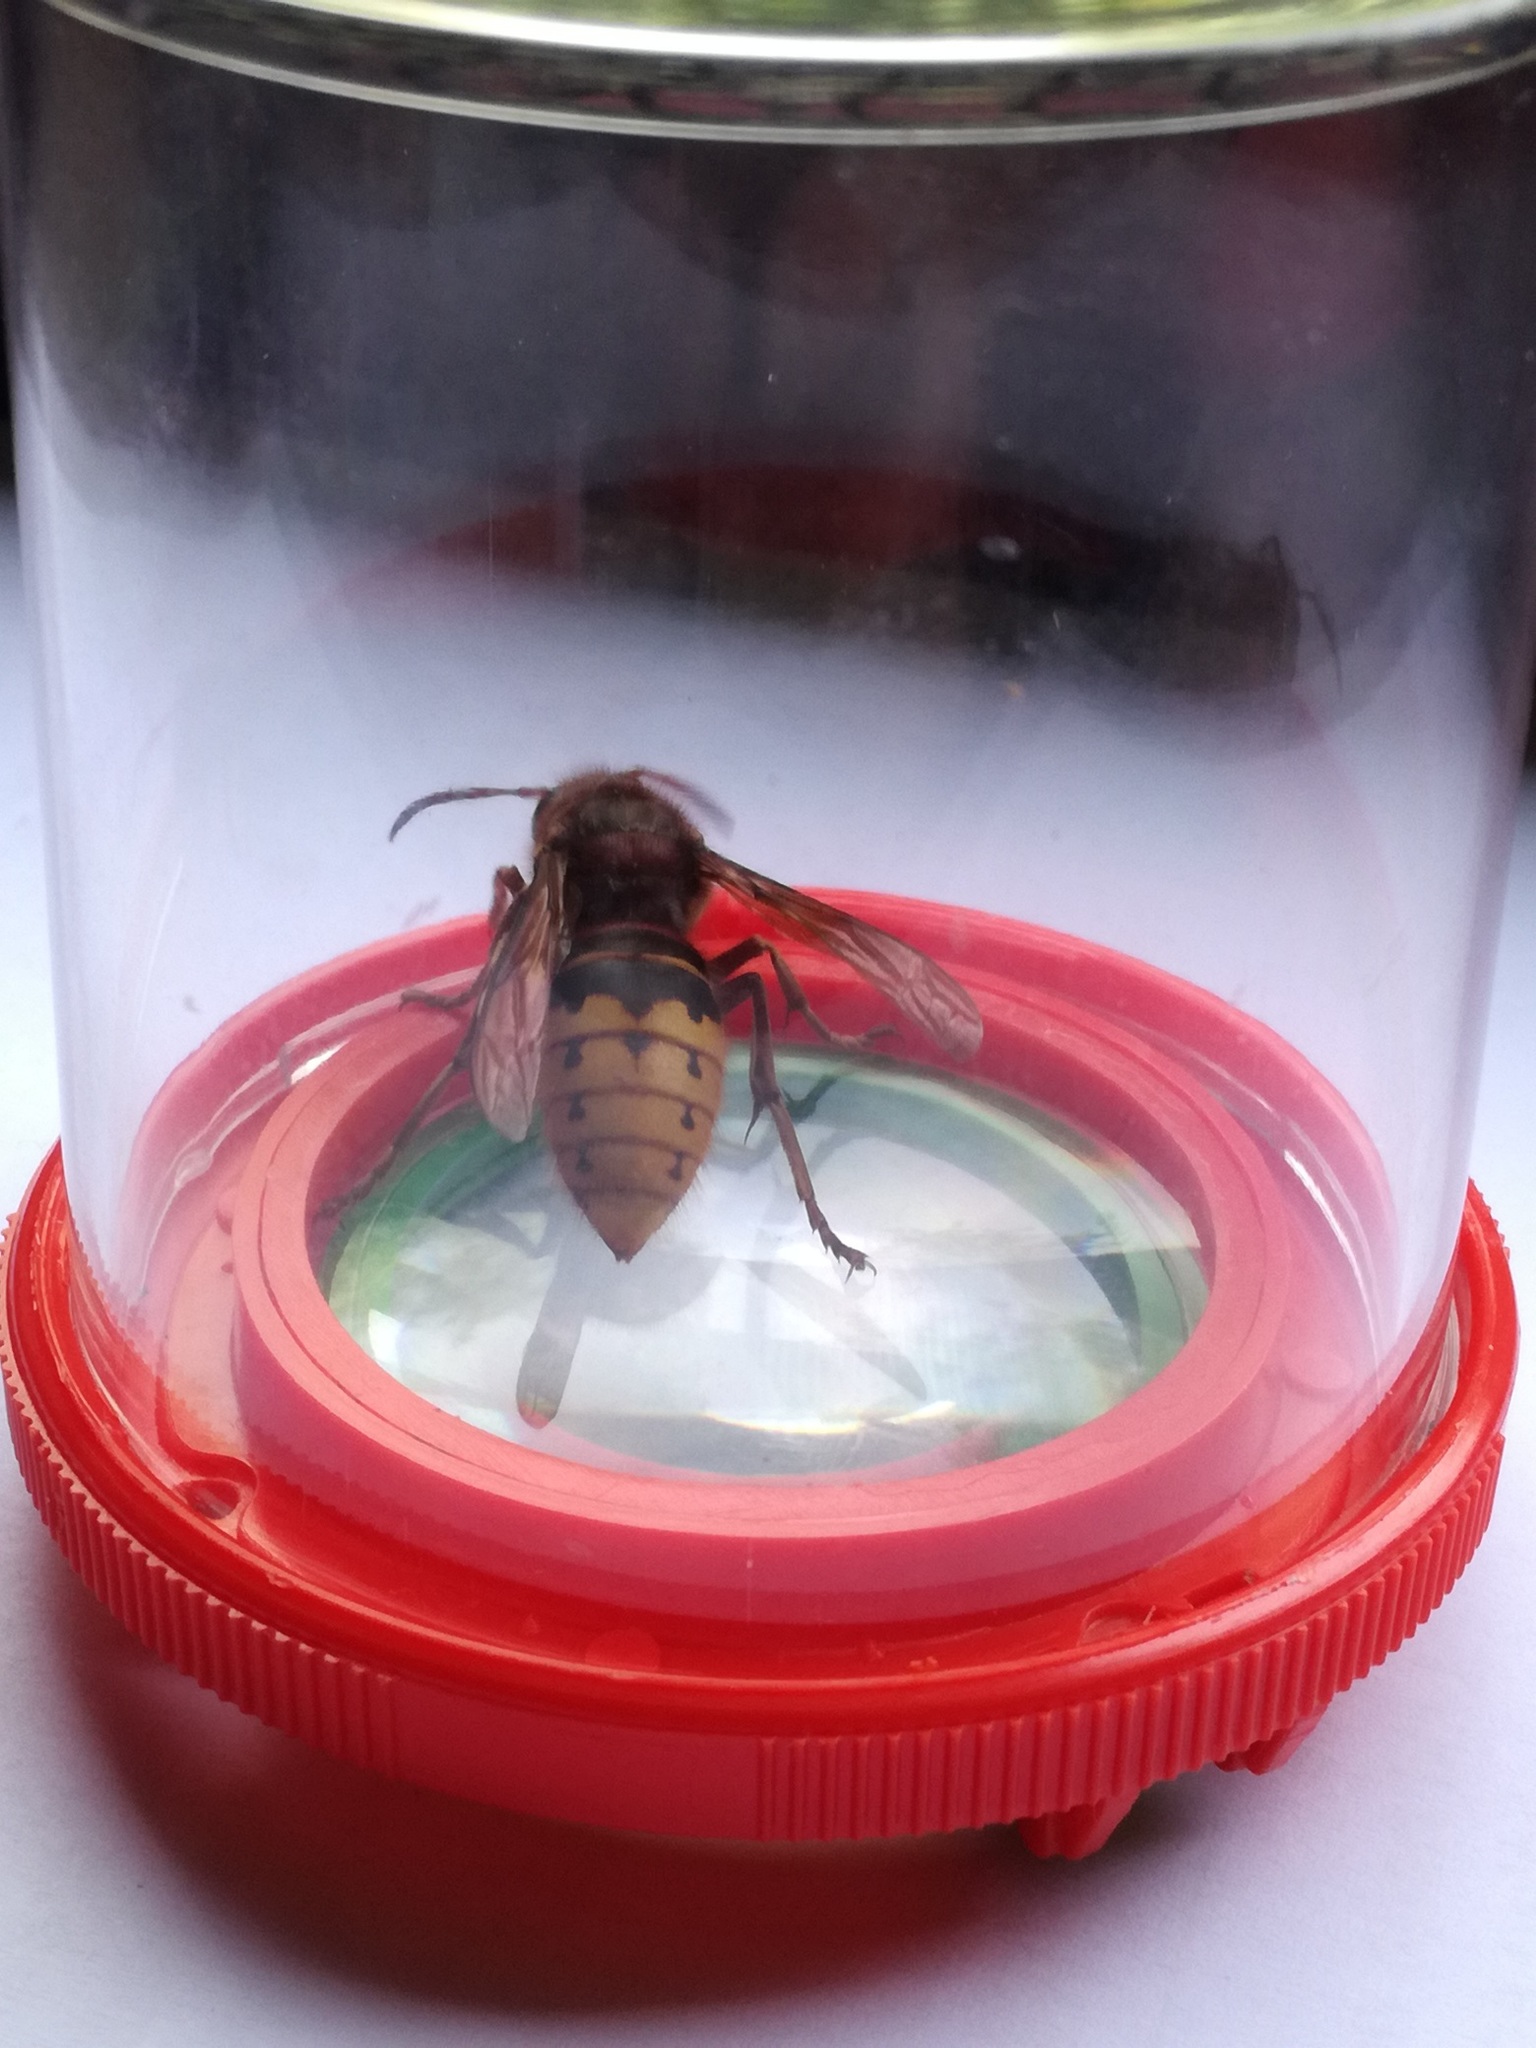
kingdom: Animalia
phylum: Arthropoda
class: Insecta
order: Hymenoptera
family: Vespidae
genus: Vespa
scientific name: Vespa crabro
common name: Hornet
